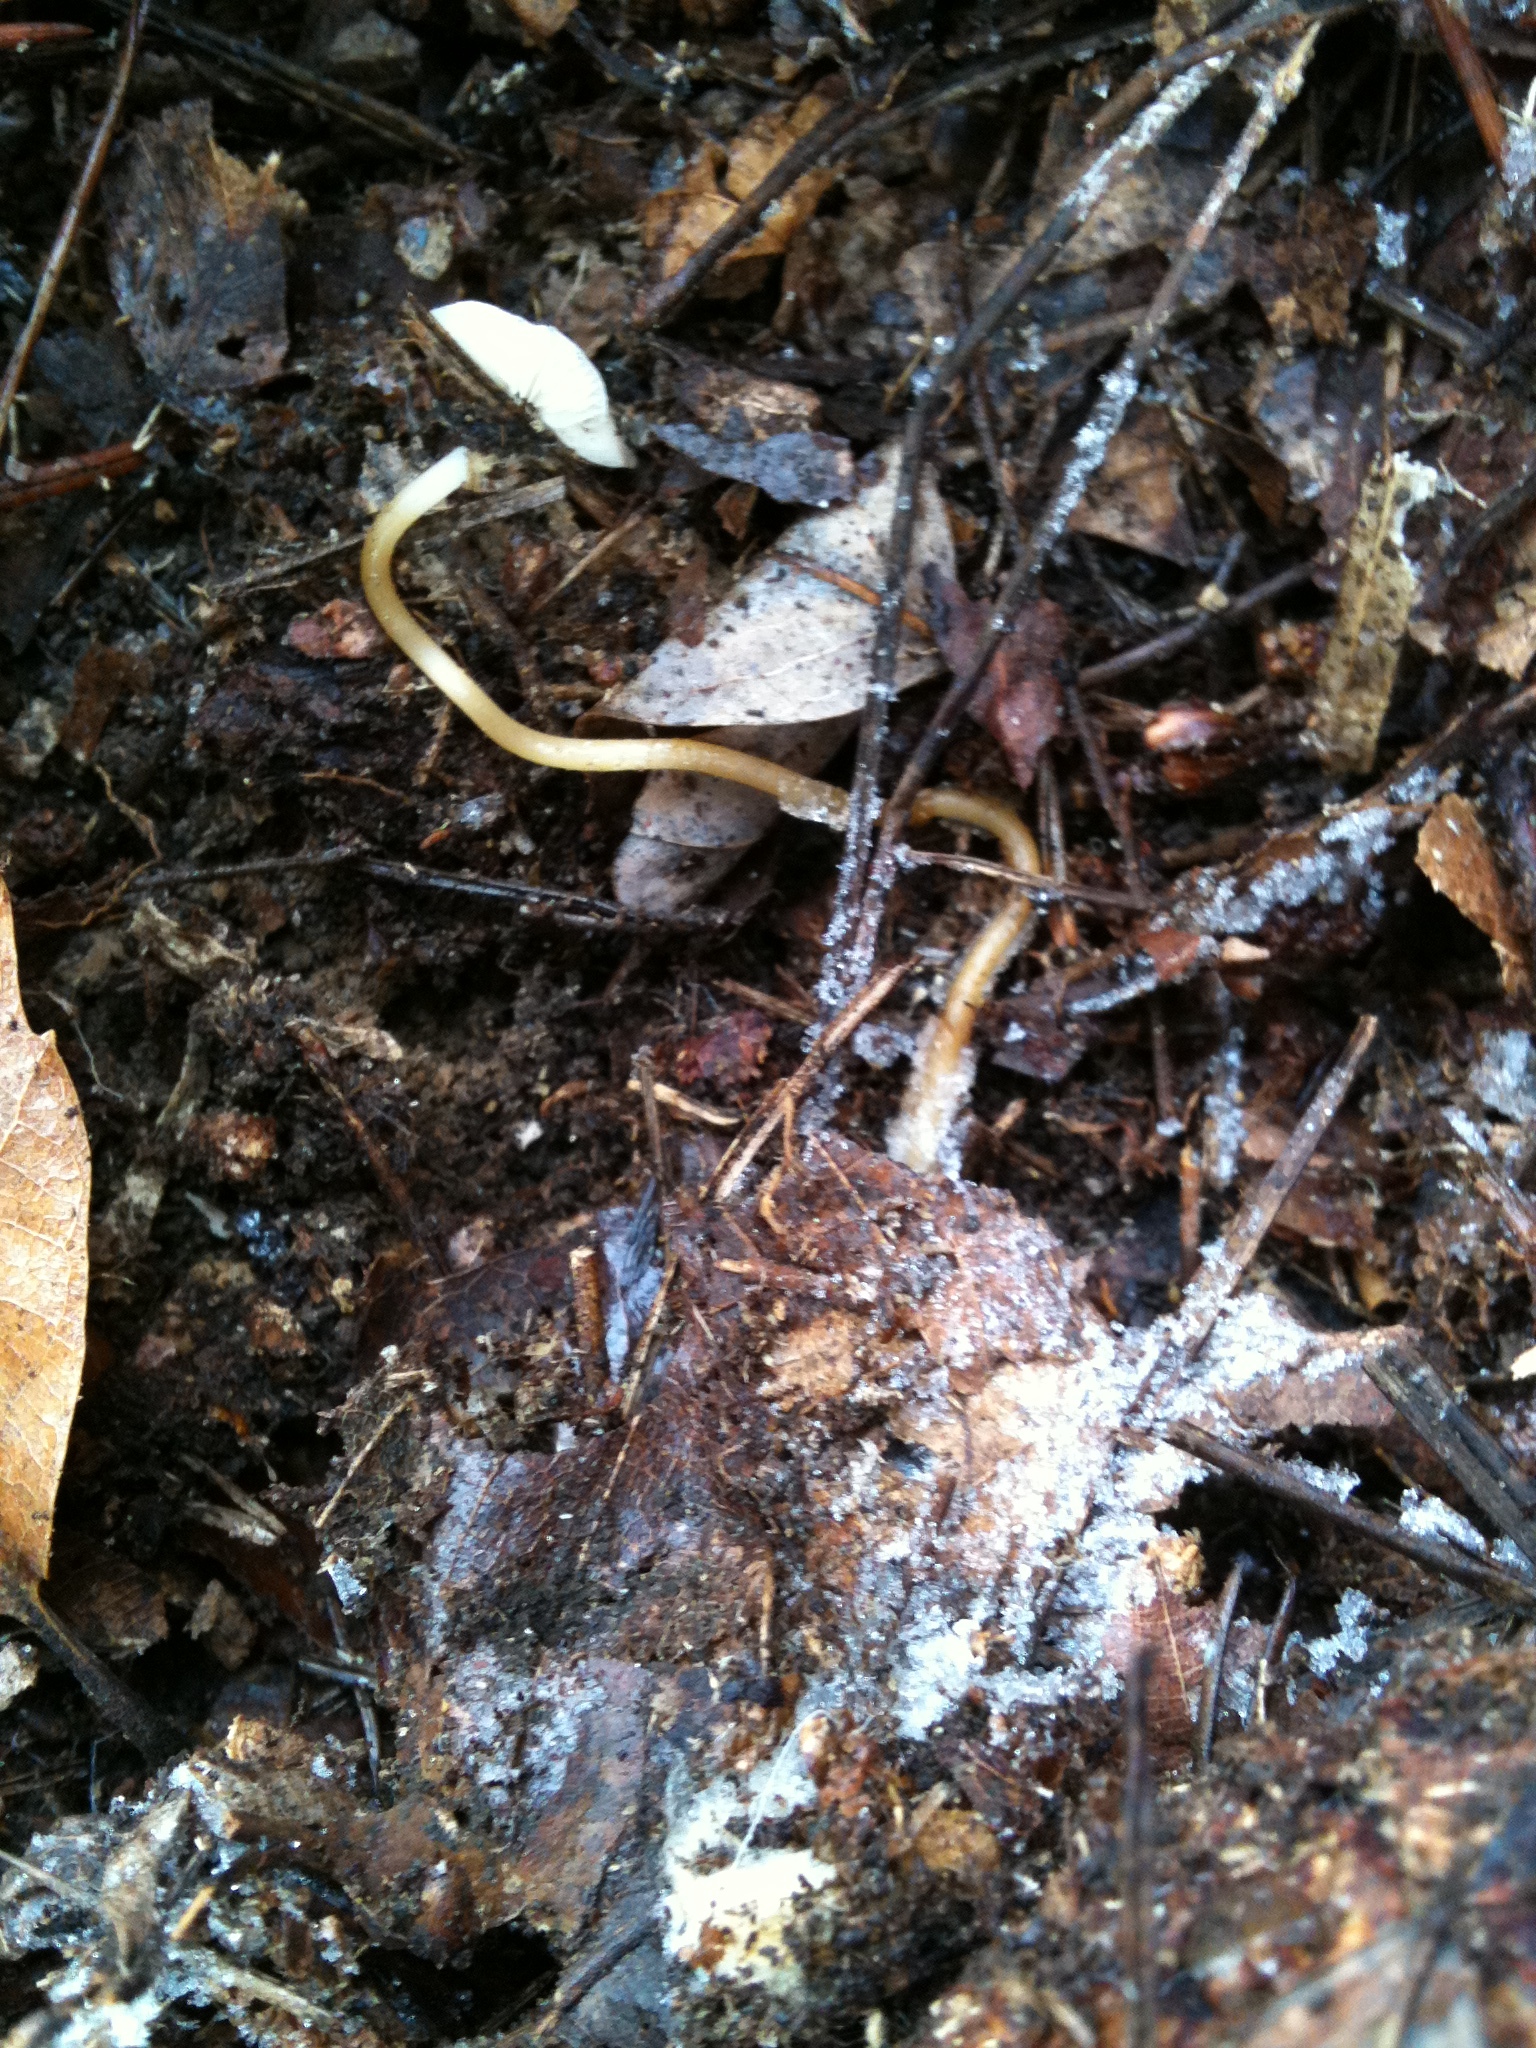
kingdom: Fungi
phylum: Basidiomycota
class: Agaricomycetes
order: Agaricales
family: Physalacriaceae
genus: Strobilurus
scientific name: Strobilurus stephanocystis
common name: Russian conecap
